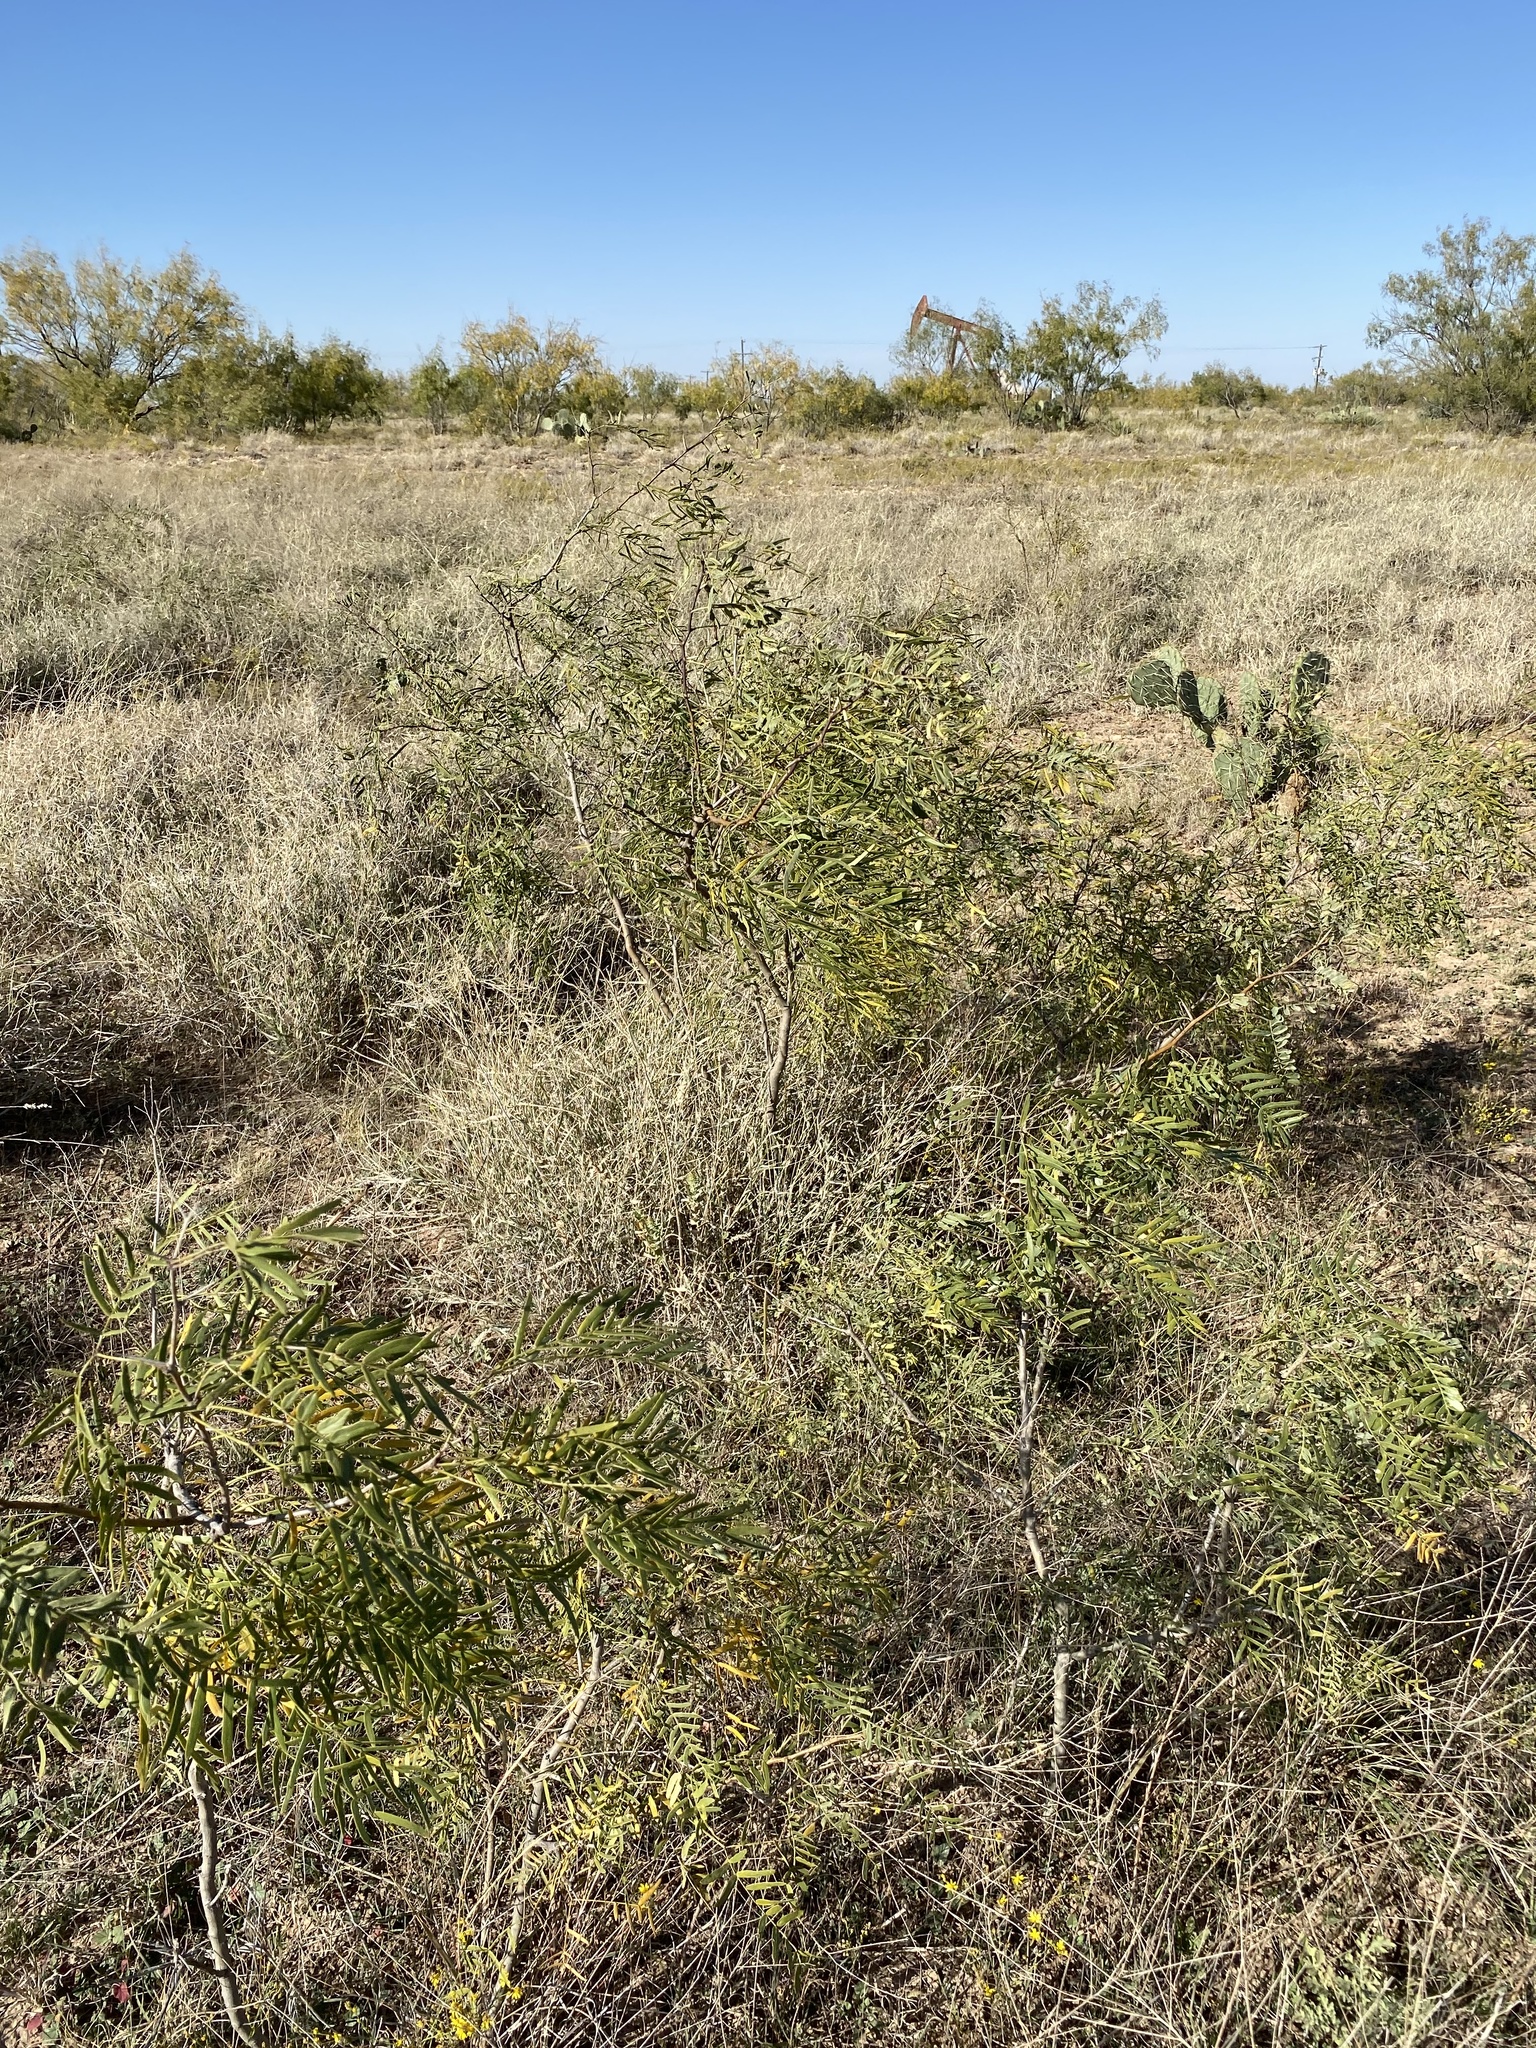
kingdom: Plantae
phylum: Tracheophyta
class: Magnoliopsida
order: Fabales
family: Fabaceae
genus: Prosopis
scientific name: Prosopis glandulosa
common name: Honey mesquite
